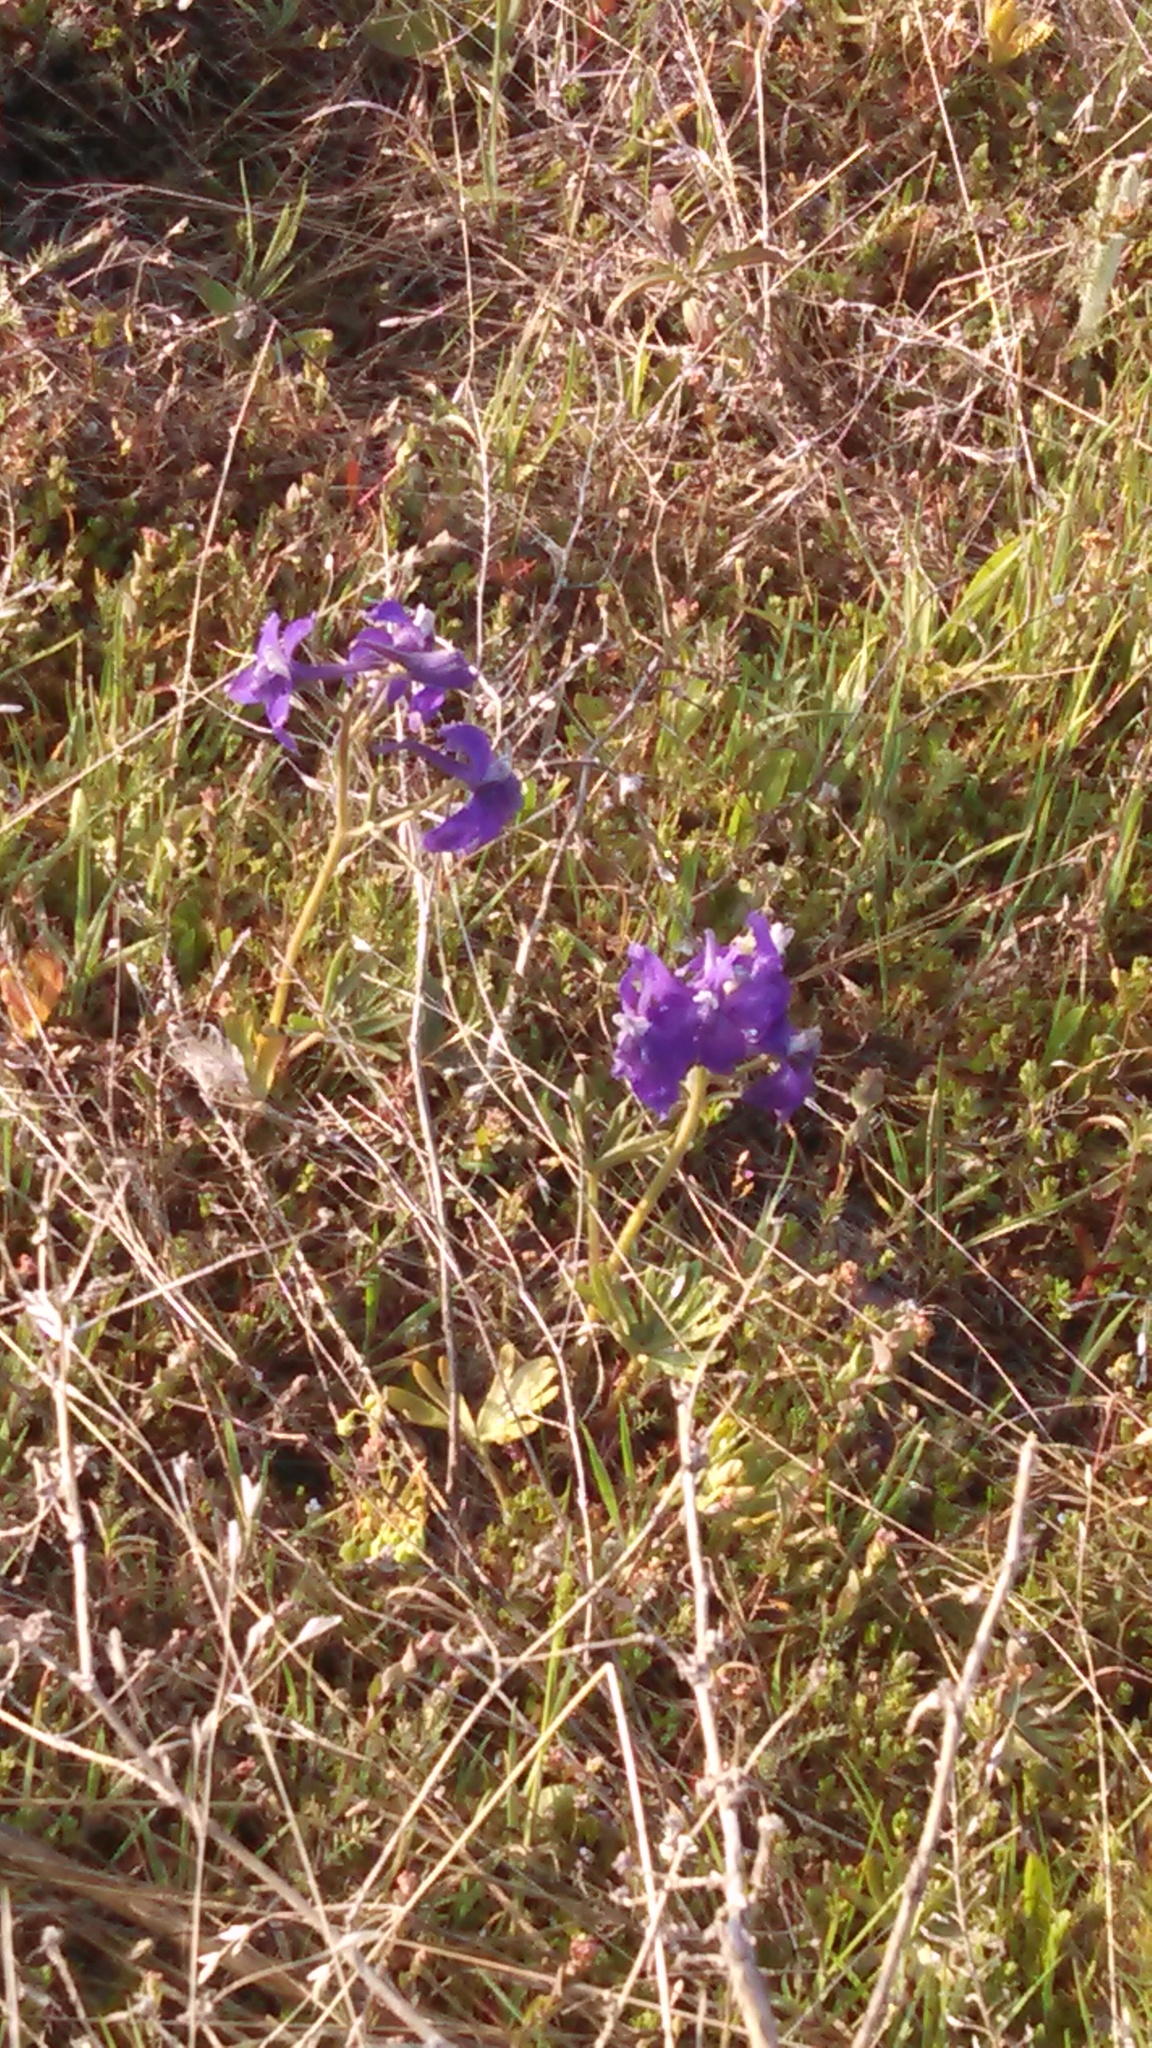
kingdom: Plantae
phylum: Tracheophyta
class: Magnoliopsida
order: Ranunculales
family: Ranunculaceae
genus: Delphinium
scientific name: Delphinium bicolor
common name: Low larkspur
